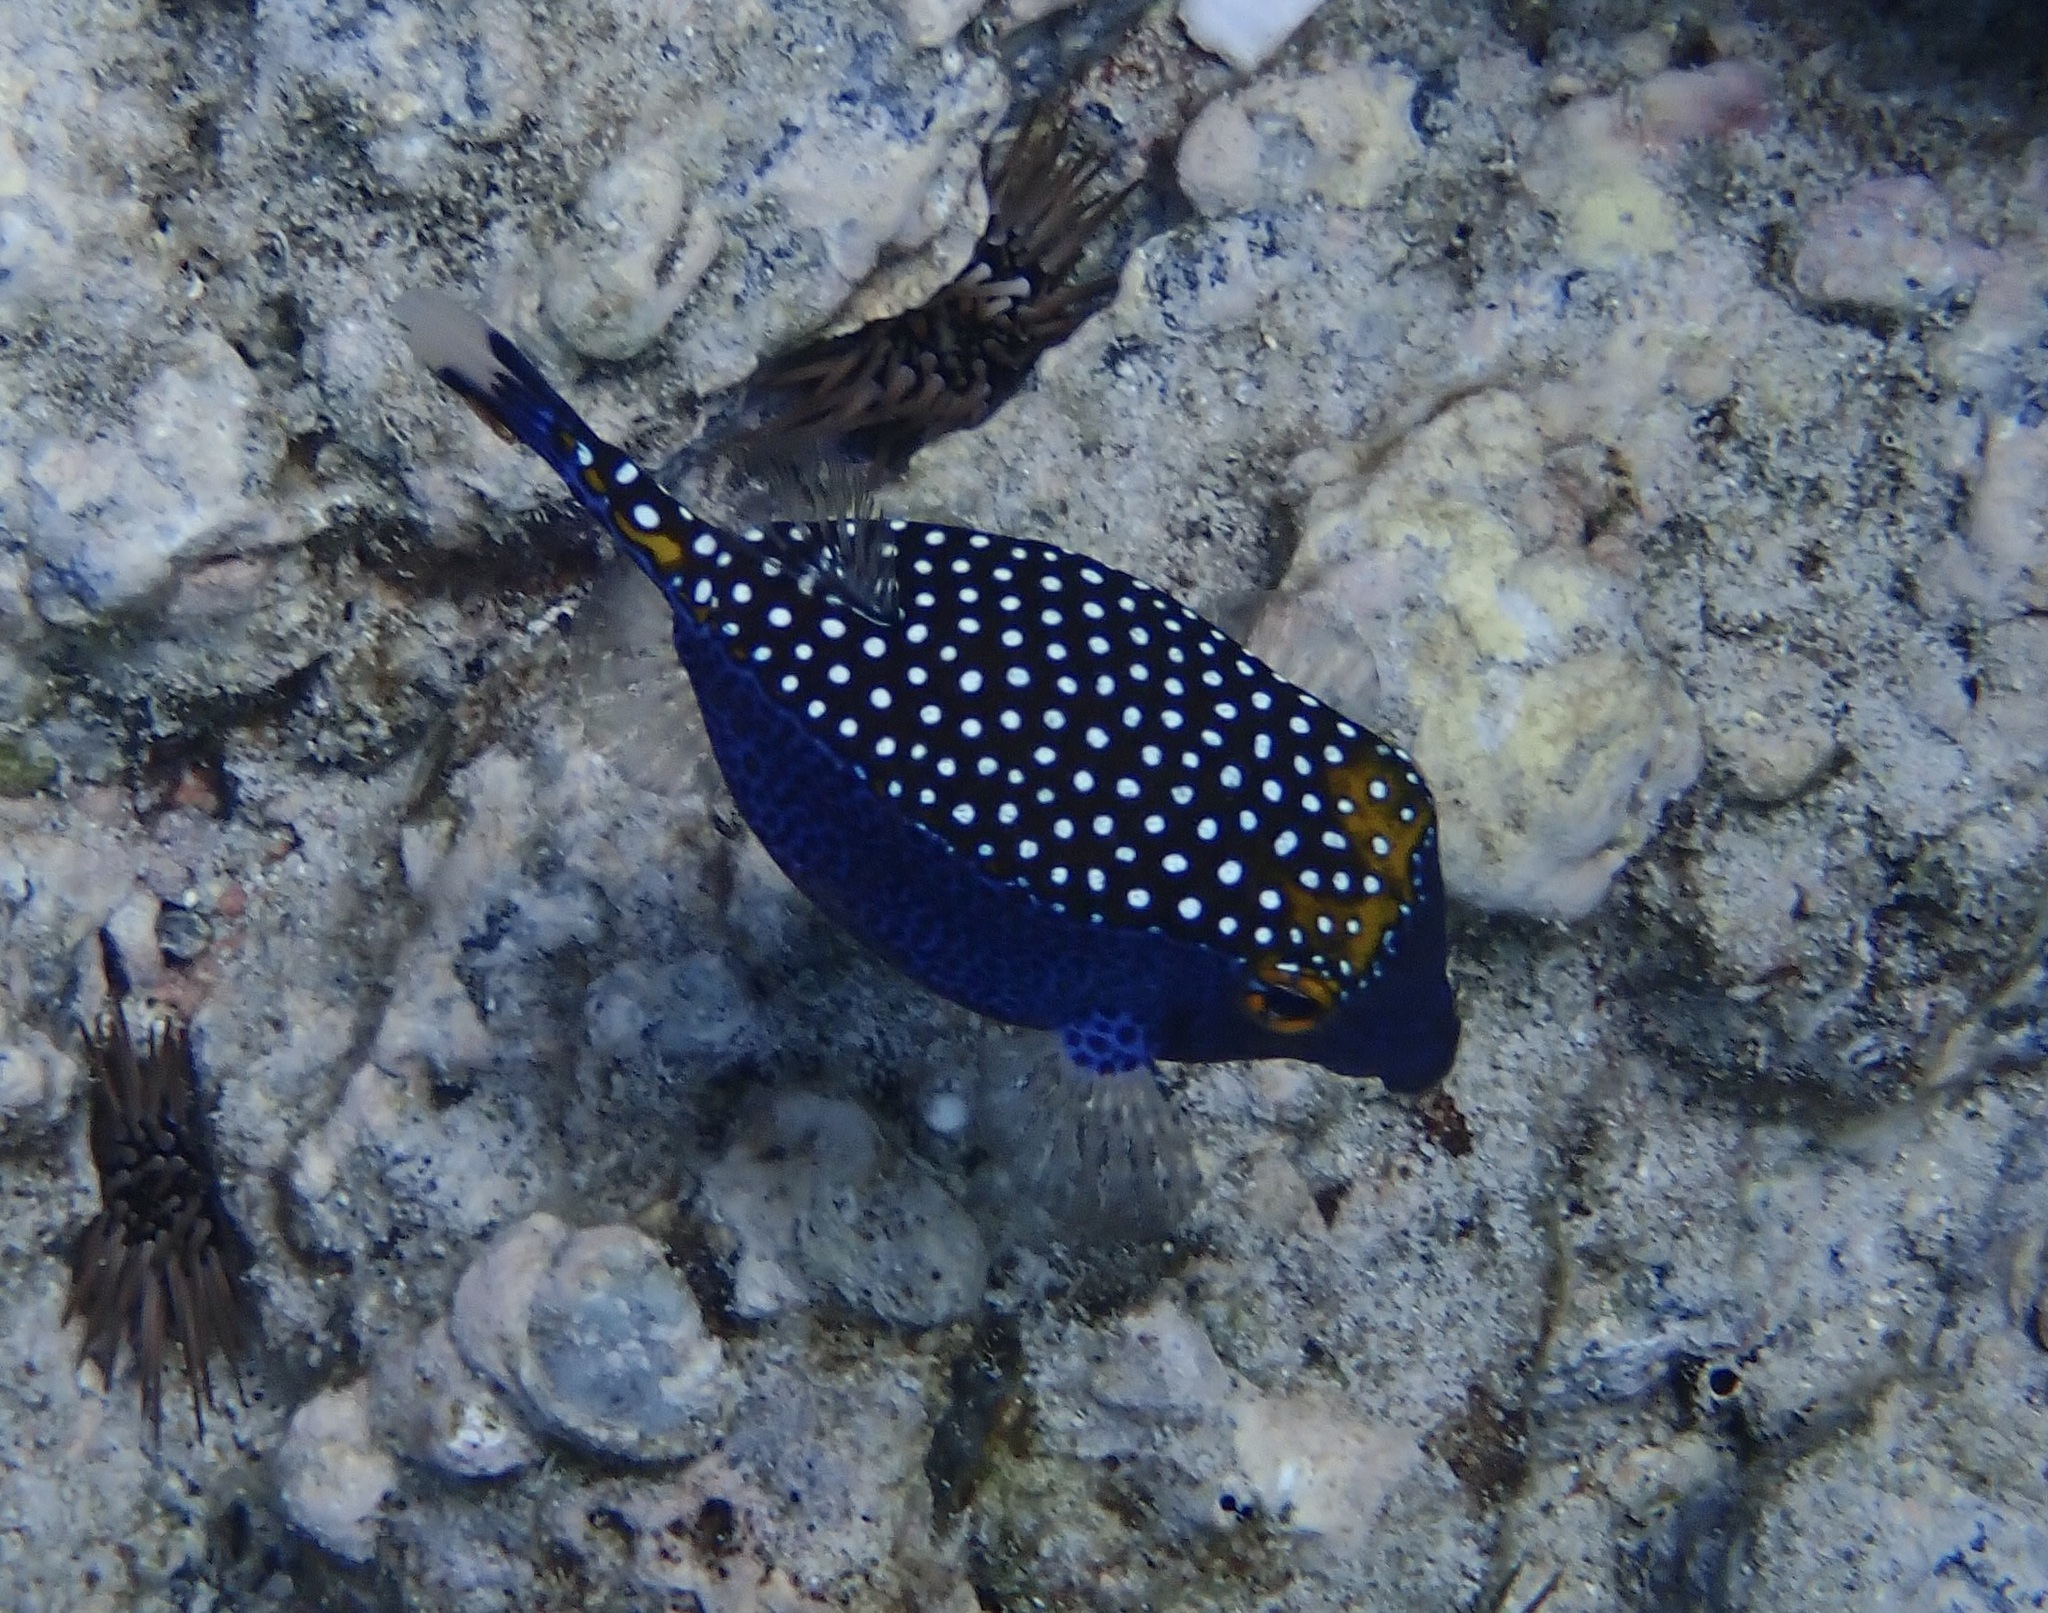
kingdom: Animalia
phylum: Chordata
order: Tetraodontiformes
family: Ostraciidae
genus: Ostracion
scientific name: Ostracion meleagris
